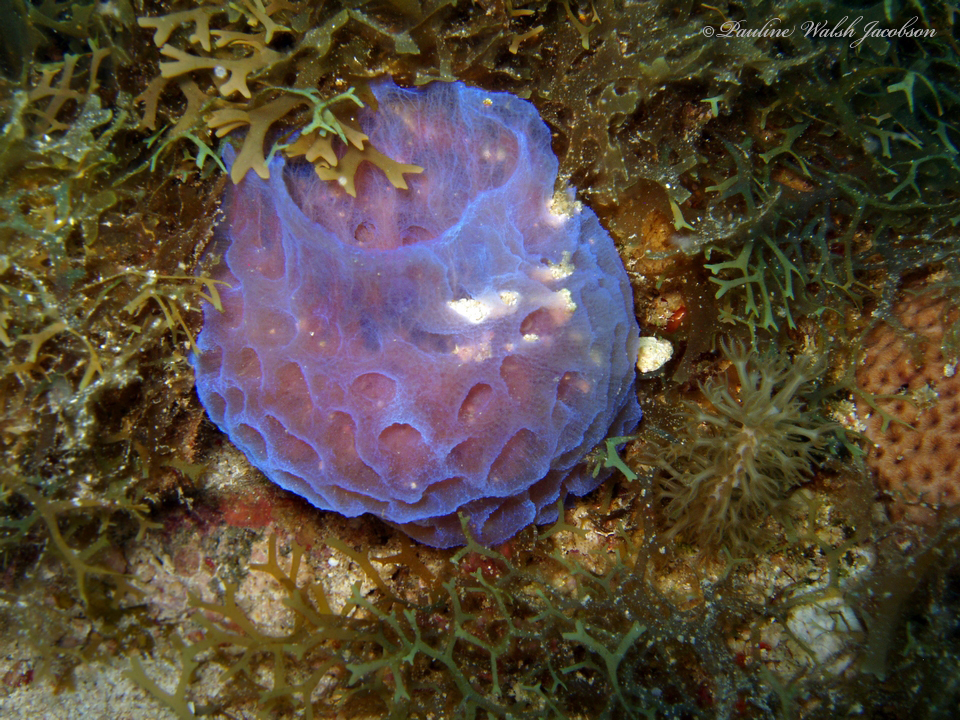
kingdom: Animalia
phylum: Porifera
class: Demospongiae
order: Haplosclerida
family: Callyspongiidae
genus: Callyspongia
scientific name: Callyspongia plicifera
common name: Azure vase sponge
